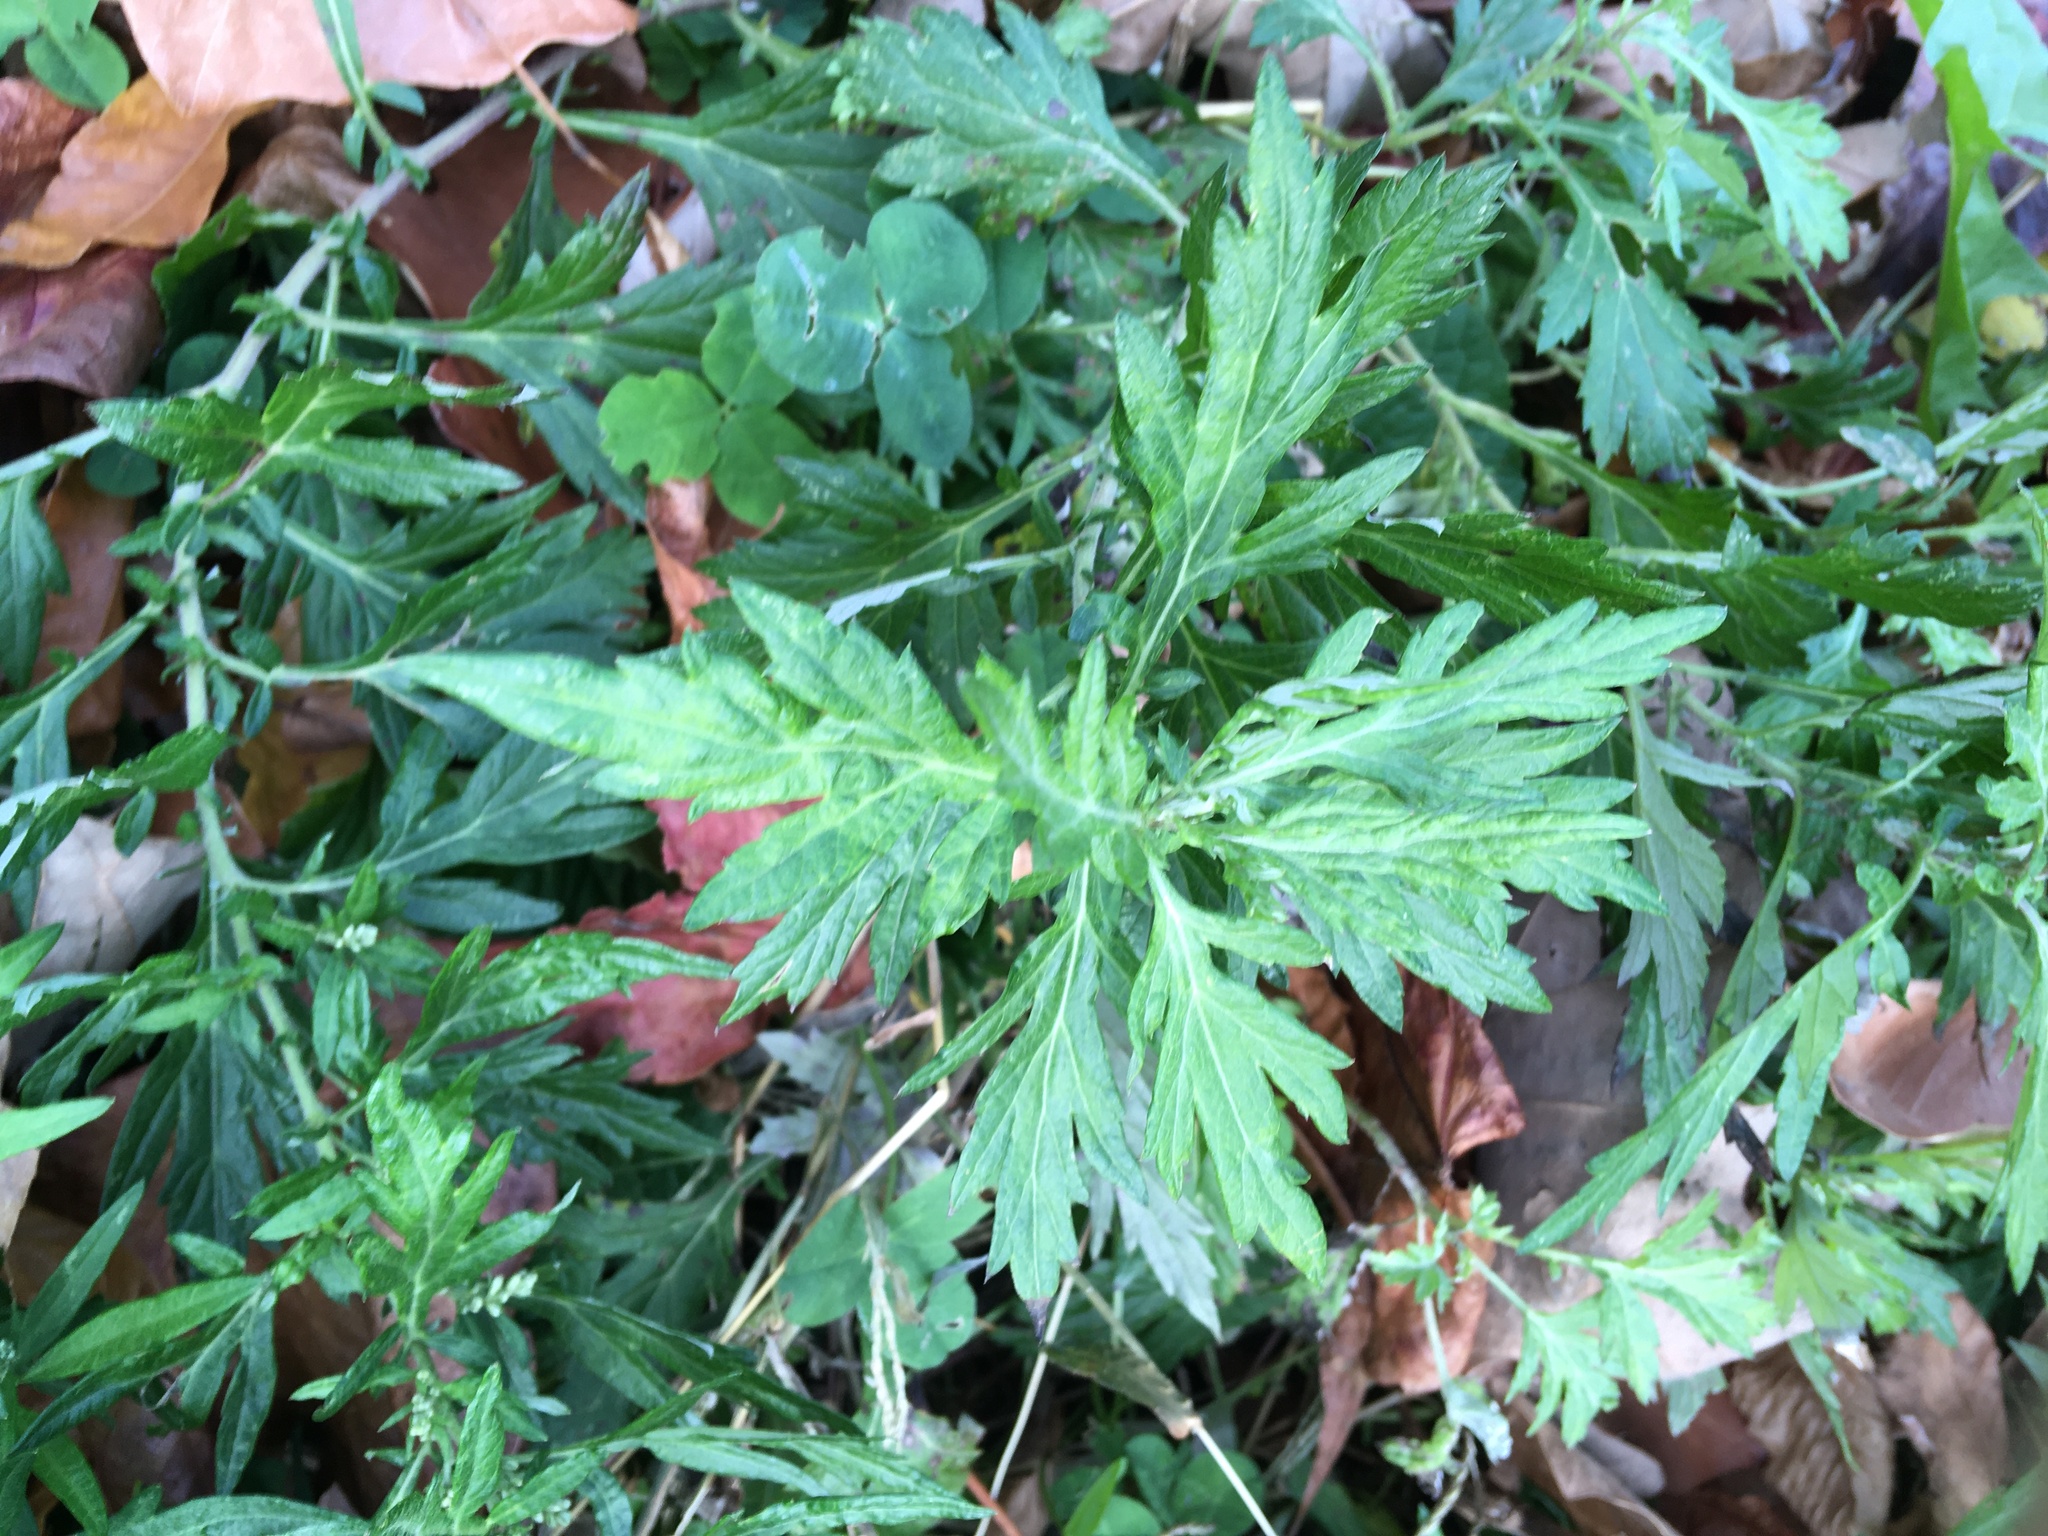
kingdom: Plantae
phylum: Tracheophyta
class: Magnoliopsida
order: Asterales
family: Asteraceae
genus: Artemisia
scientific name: Artemisia vulgaris
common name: Mugwort
